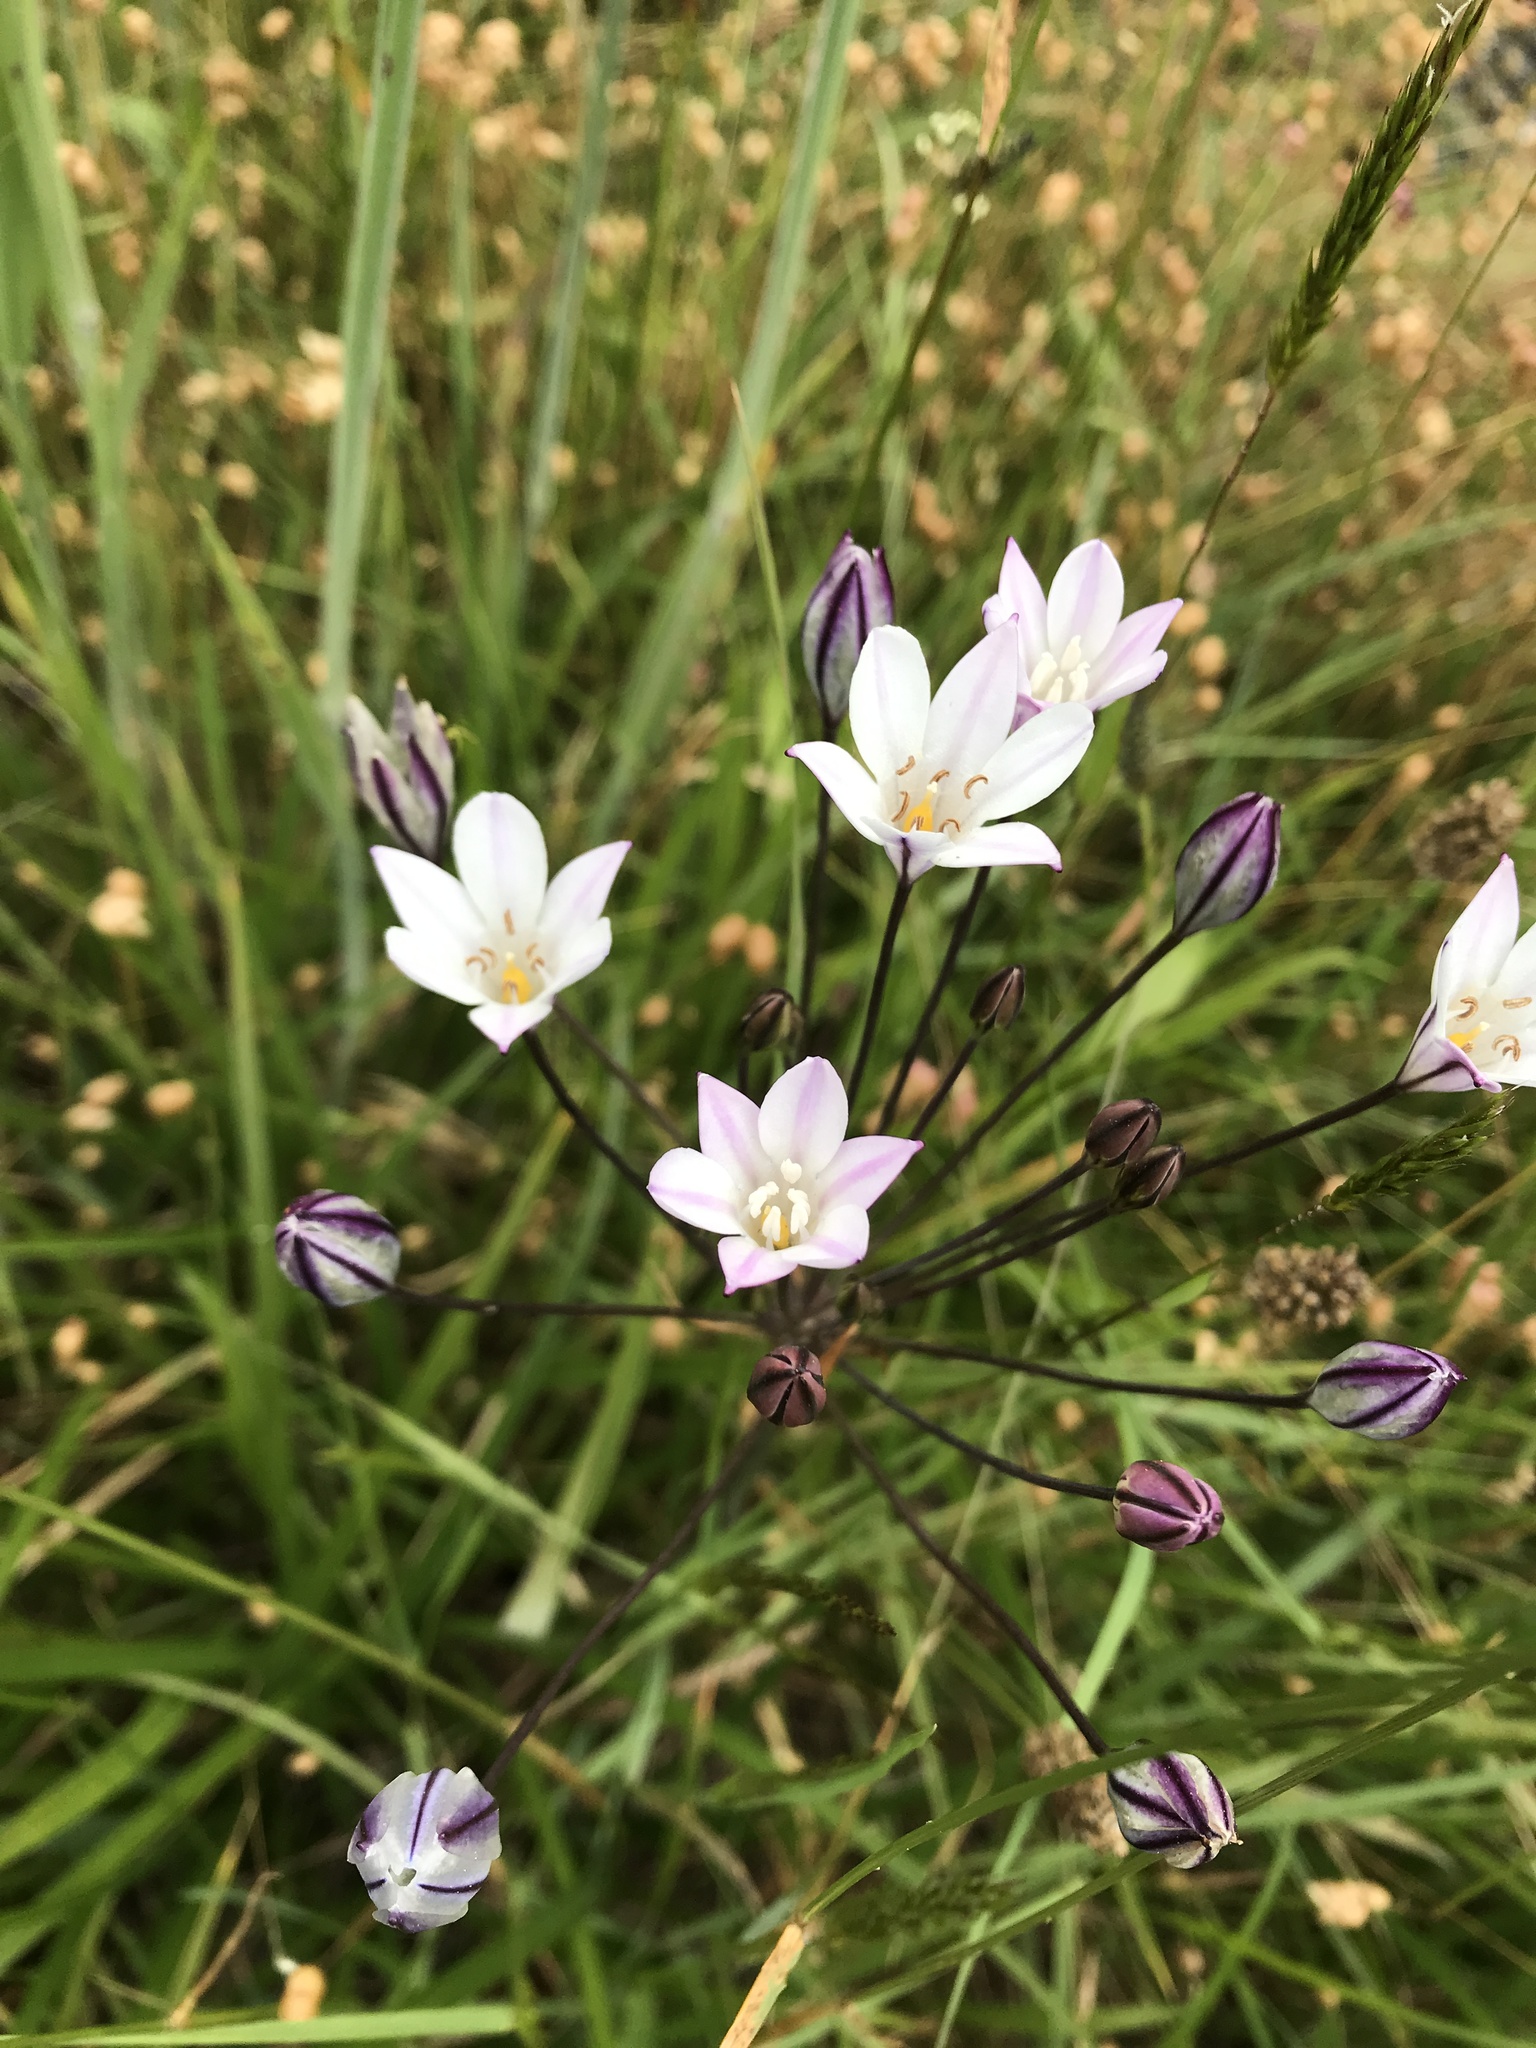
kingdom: Plantae
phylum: Tracheophyta
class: Liliopsida
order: Asparagales
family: Asparagaceae
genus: Triteleia
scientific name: Triteleia peduncularis
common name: Long-ray brodiaea
